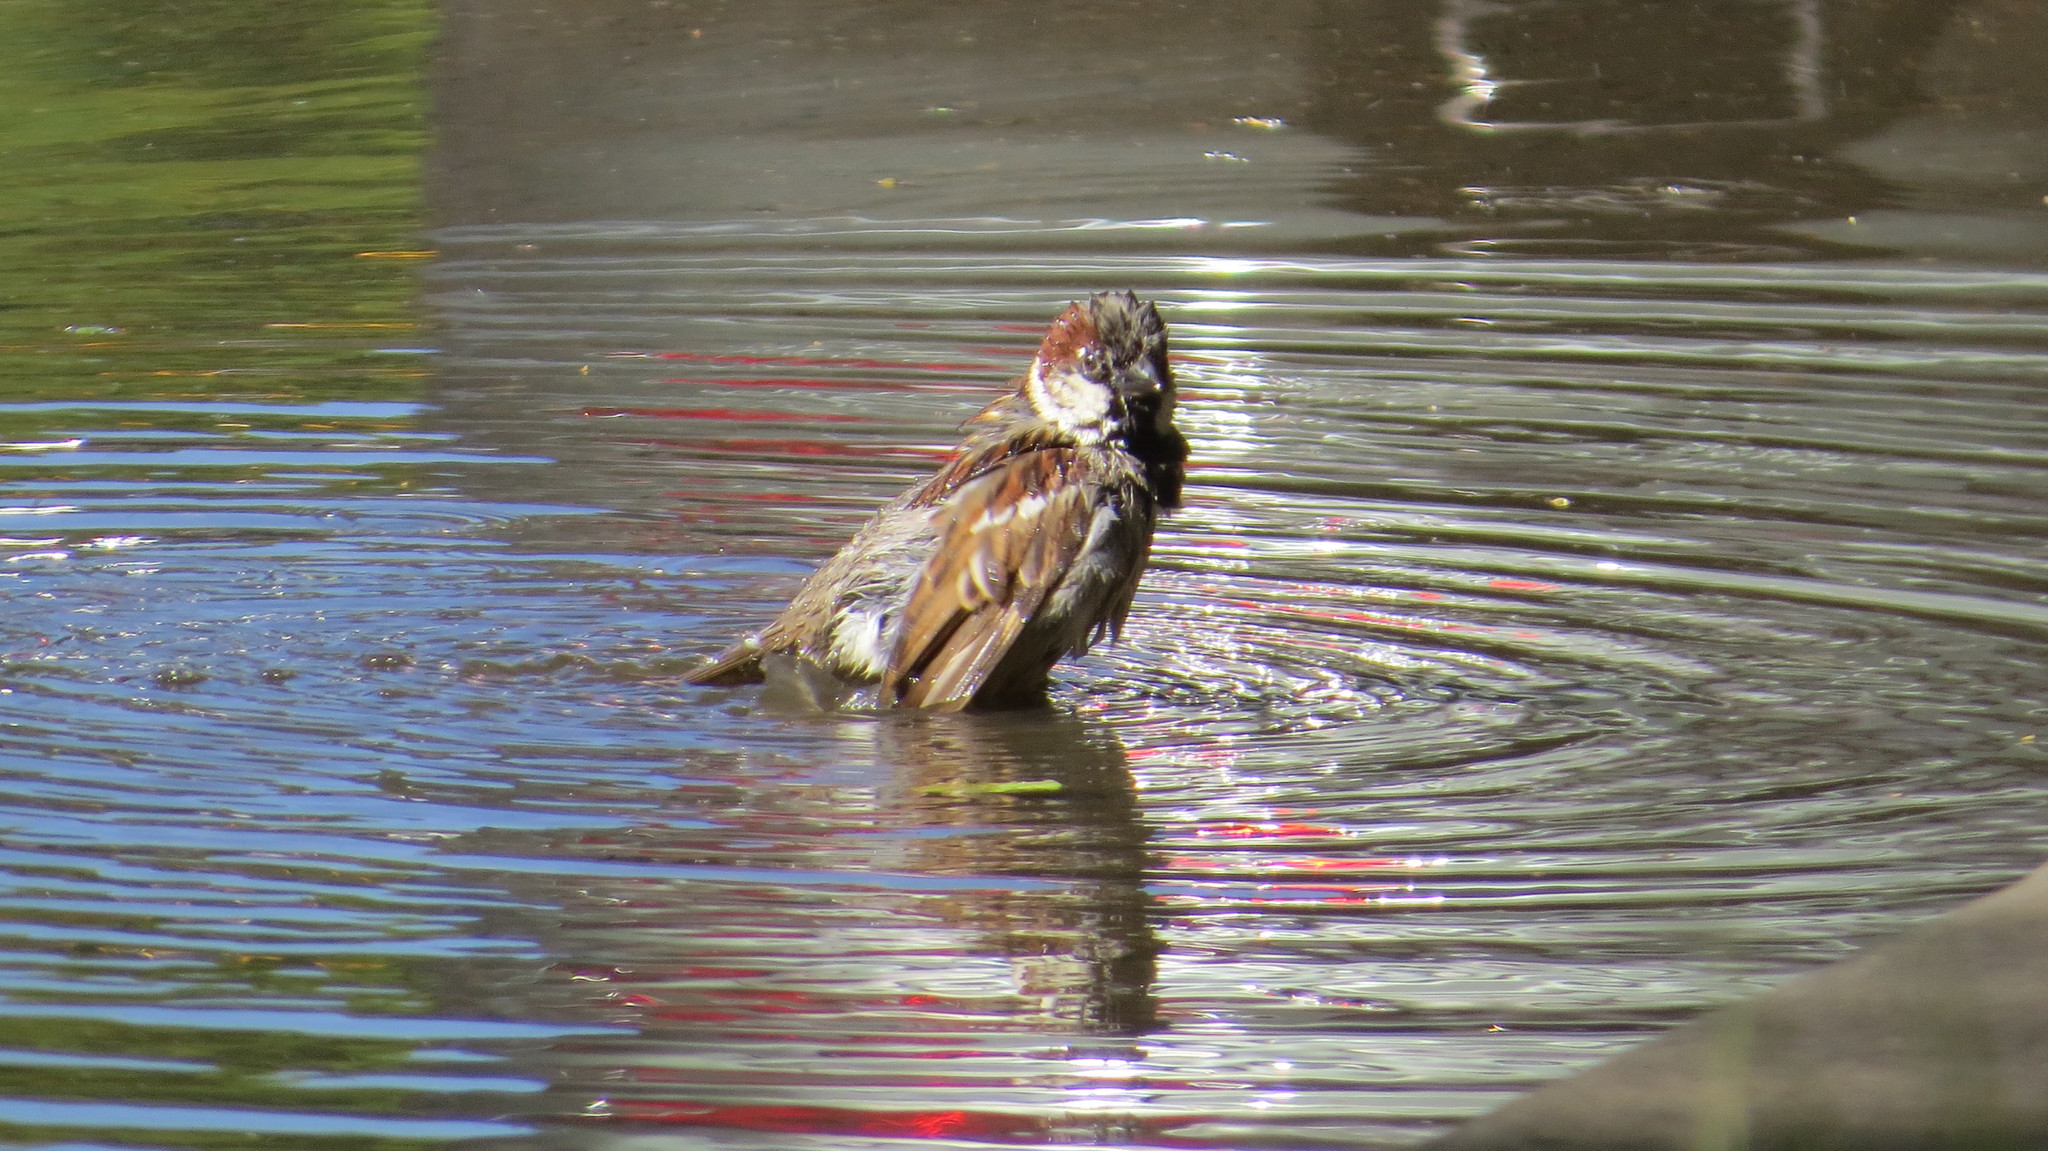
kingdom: Animalia
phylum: Chordata
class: Aves
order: Passeriformes
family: Passeridae
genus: Passer
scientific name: Passer domesticus
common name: House sparrow
